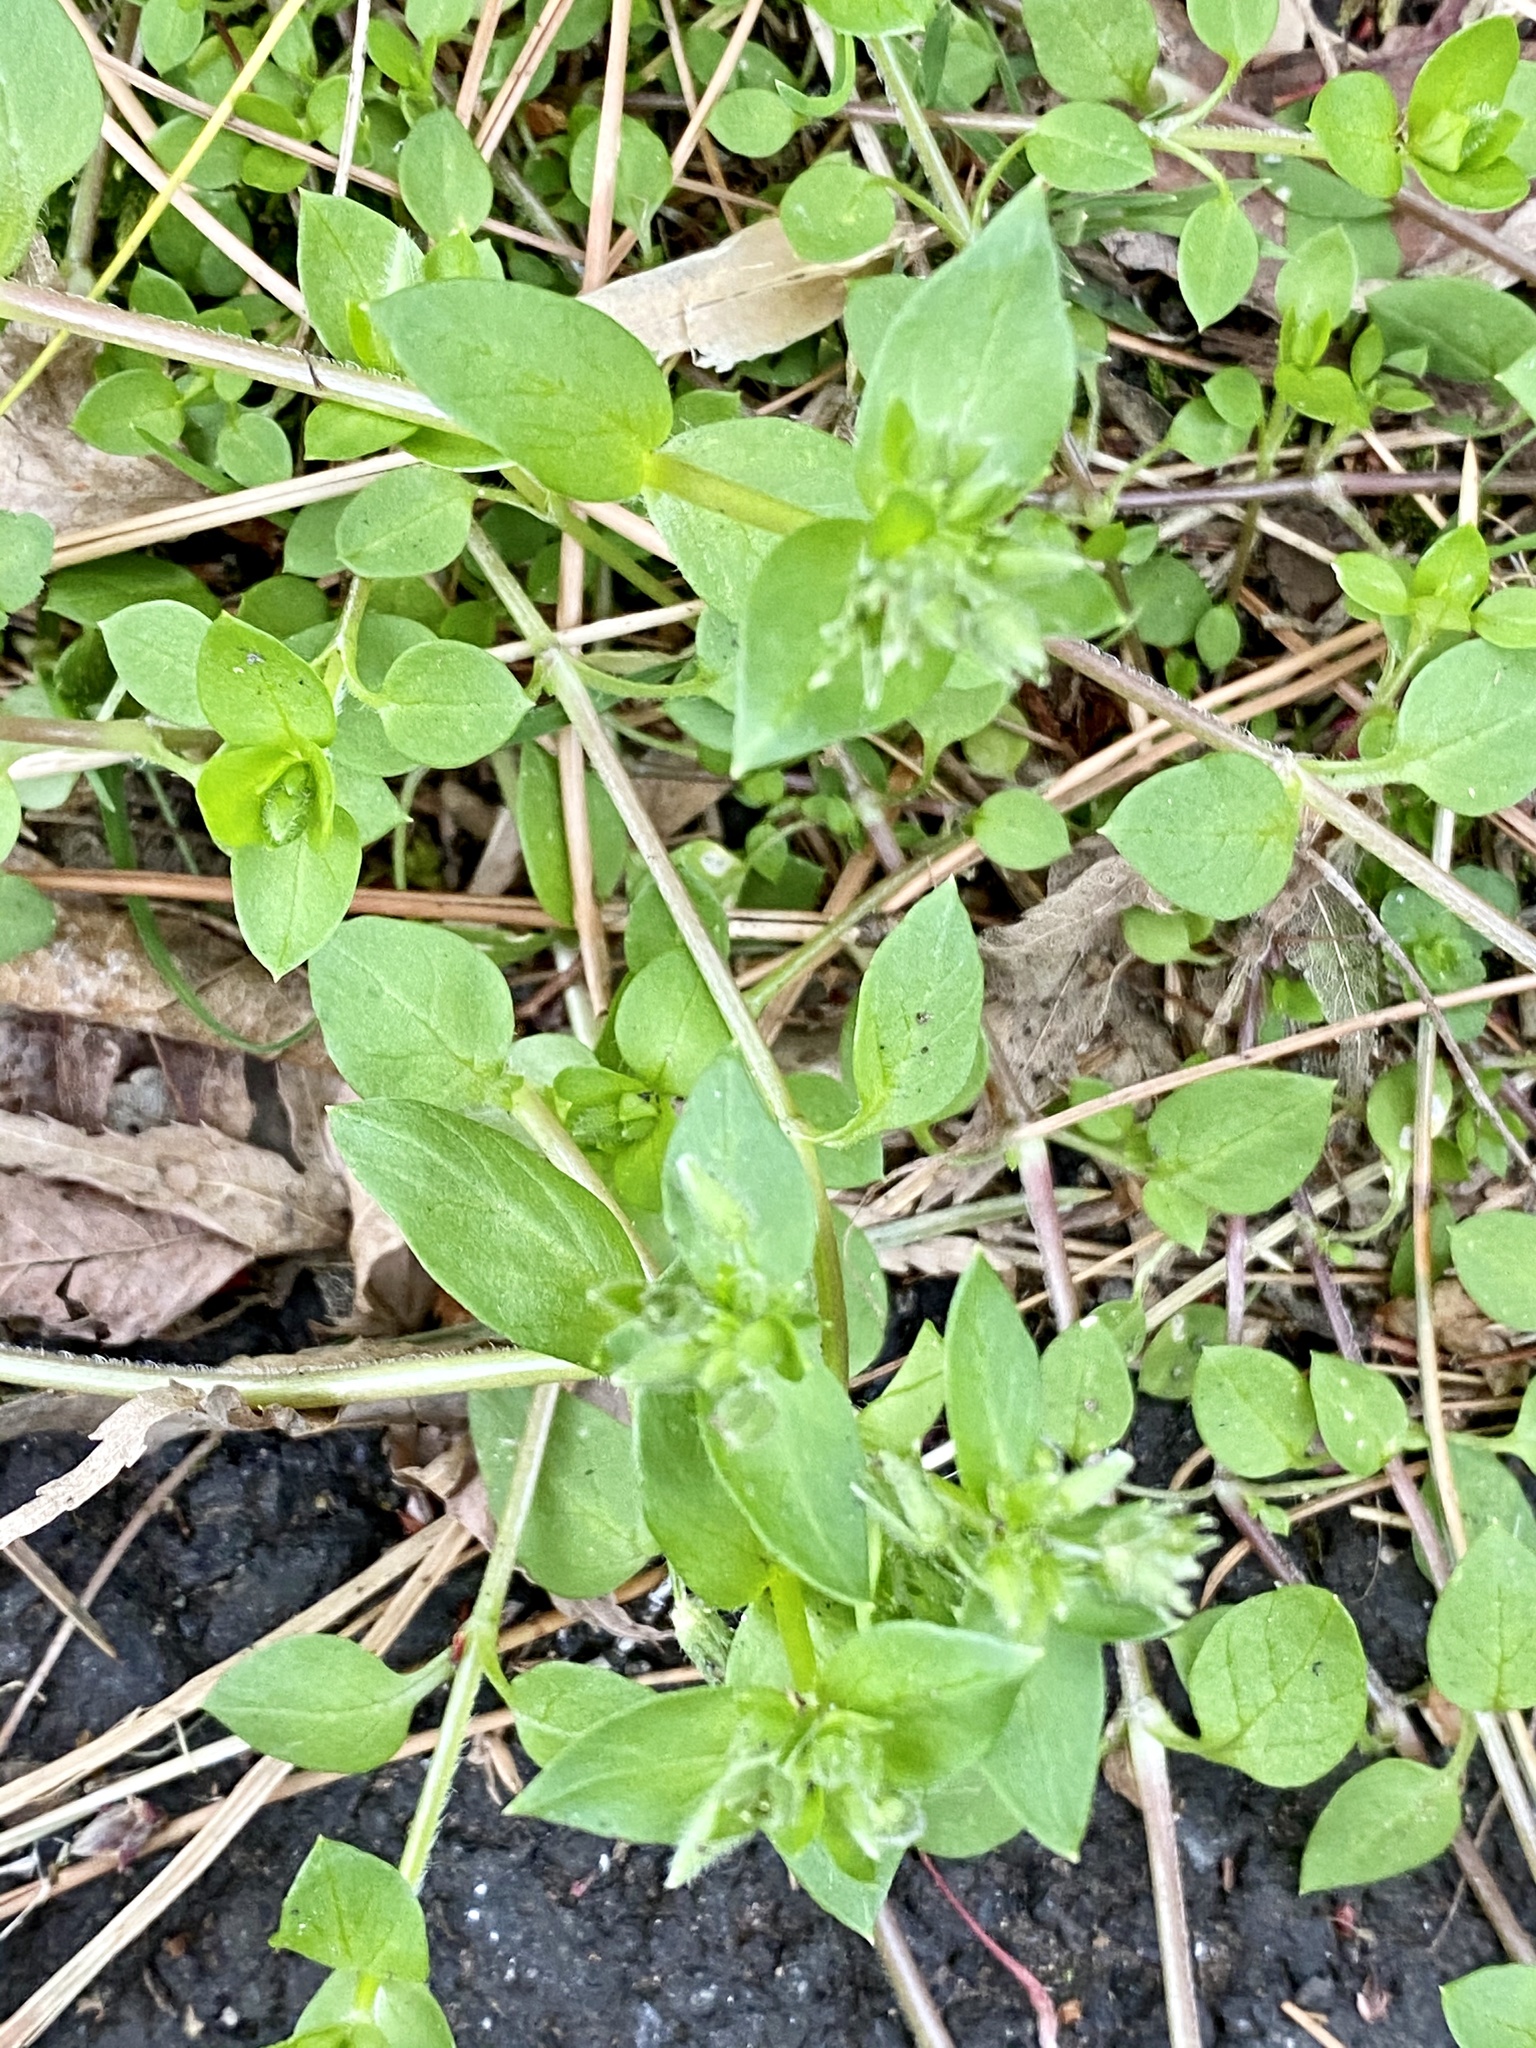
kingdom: Plantae
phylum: Tracheophyta
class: Magnoliopsida
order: Caryophyllales
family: Caryophyllaceae
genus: Stellaria
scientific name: Stellaria media
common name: Common chickweed
